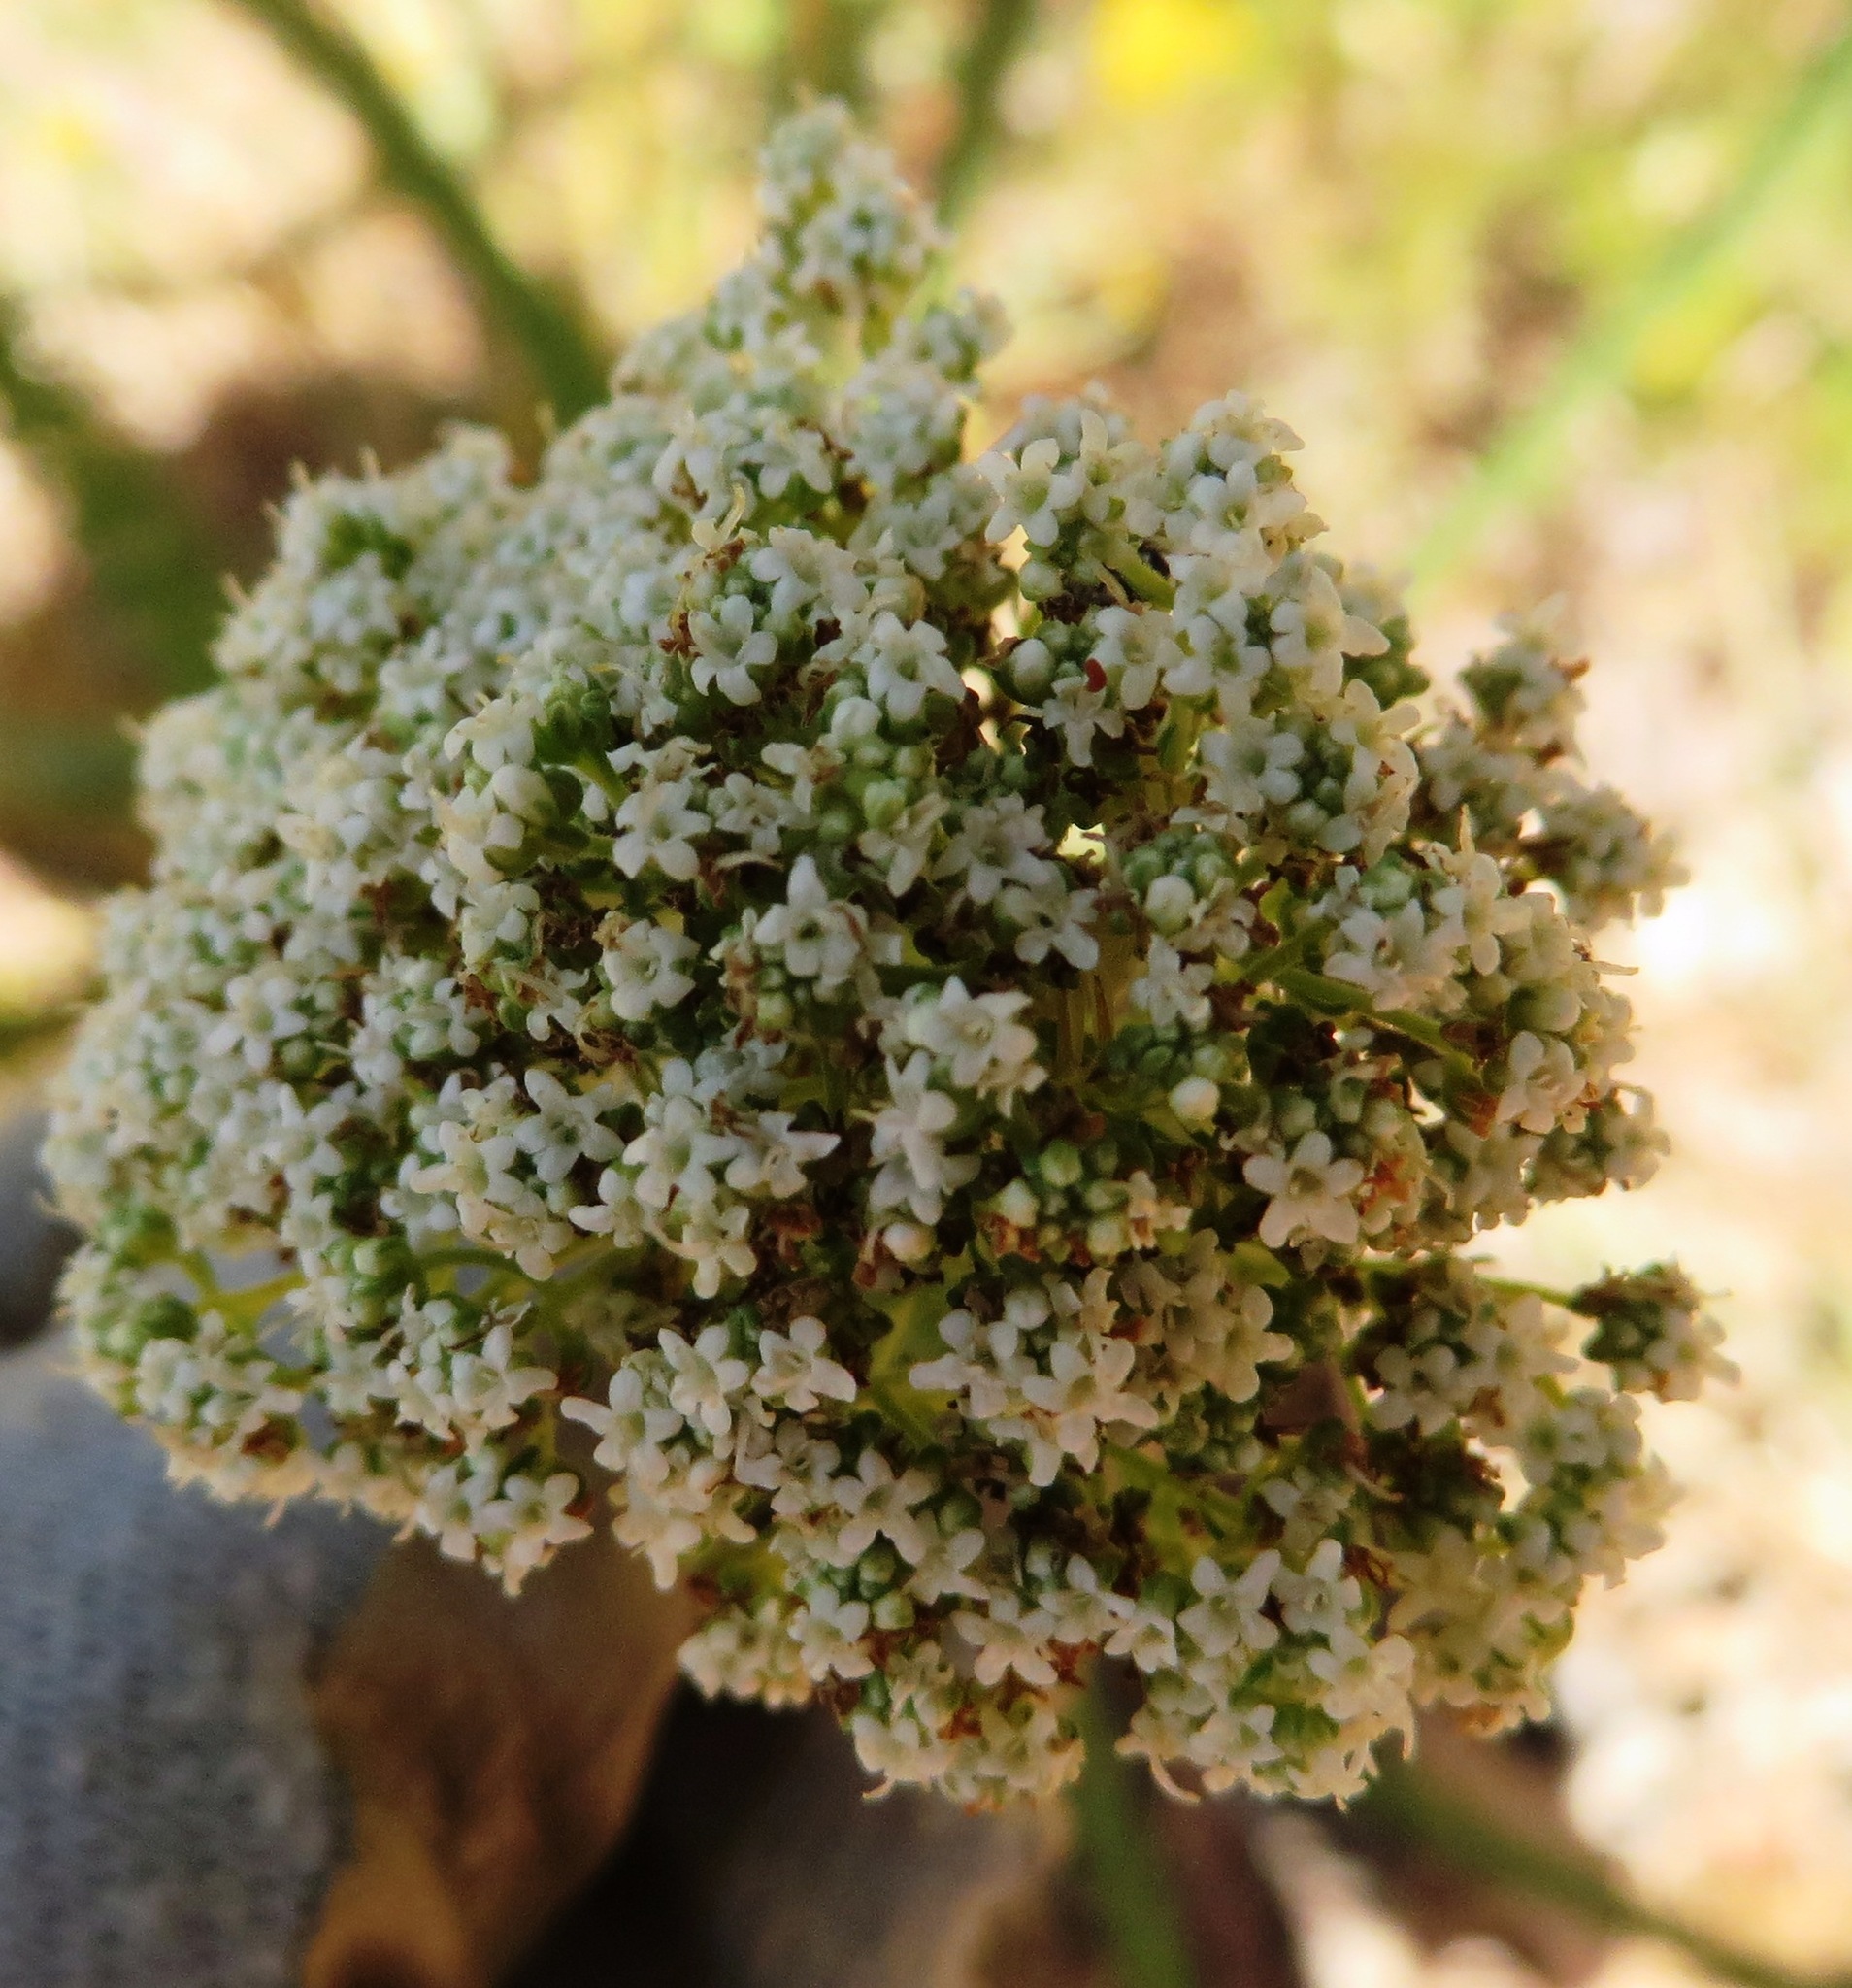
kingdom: Plantae
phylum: Tracheophyta
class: Magnoliopsida
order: Lamiales
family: Scrophulariaceae
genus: Selago
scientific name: Selago corymbosa
